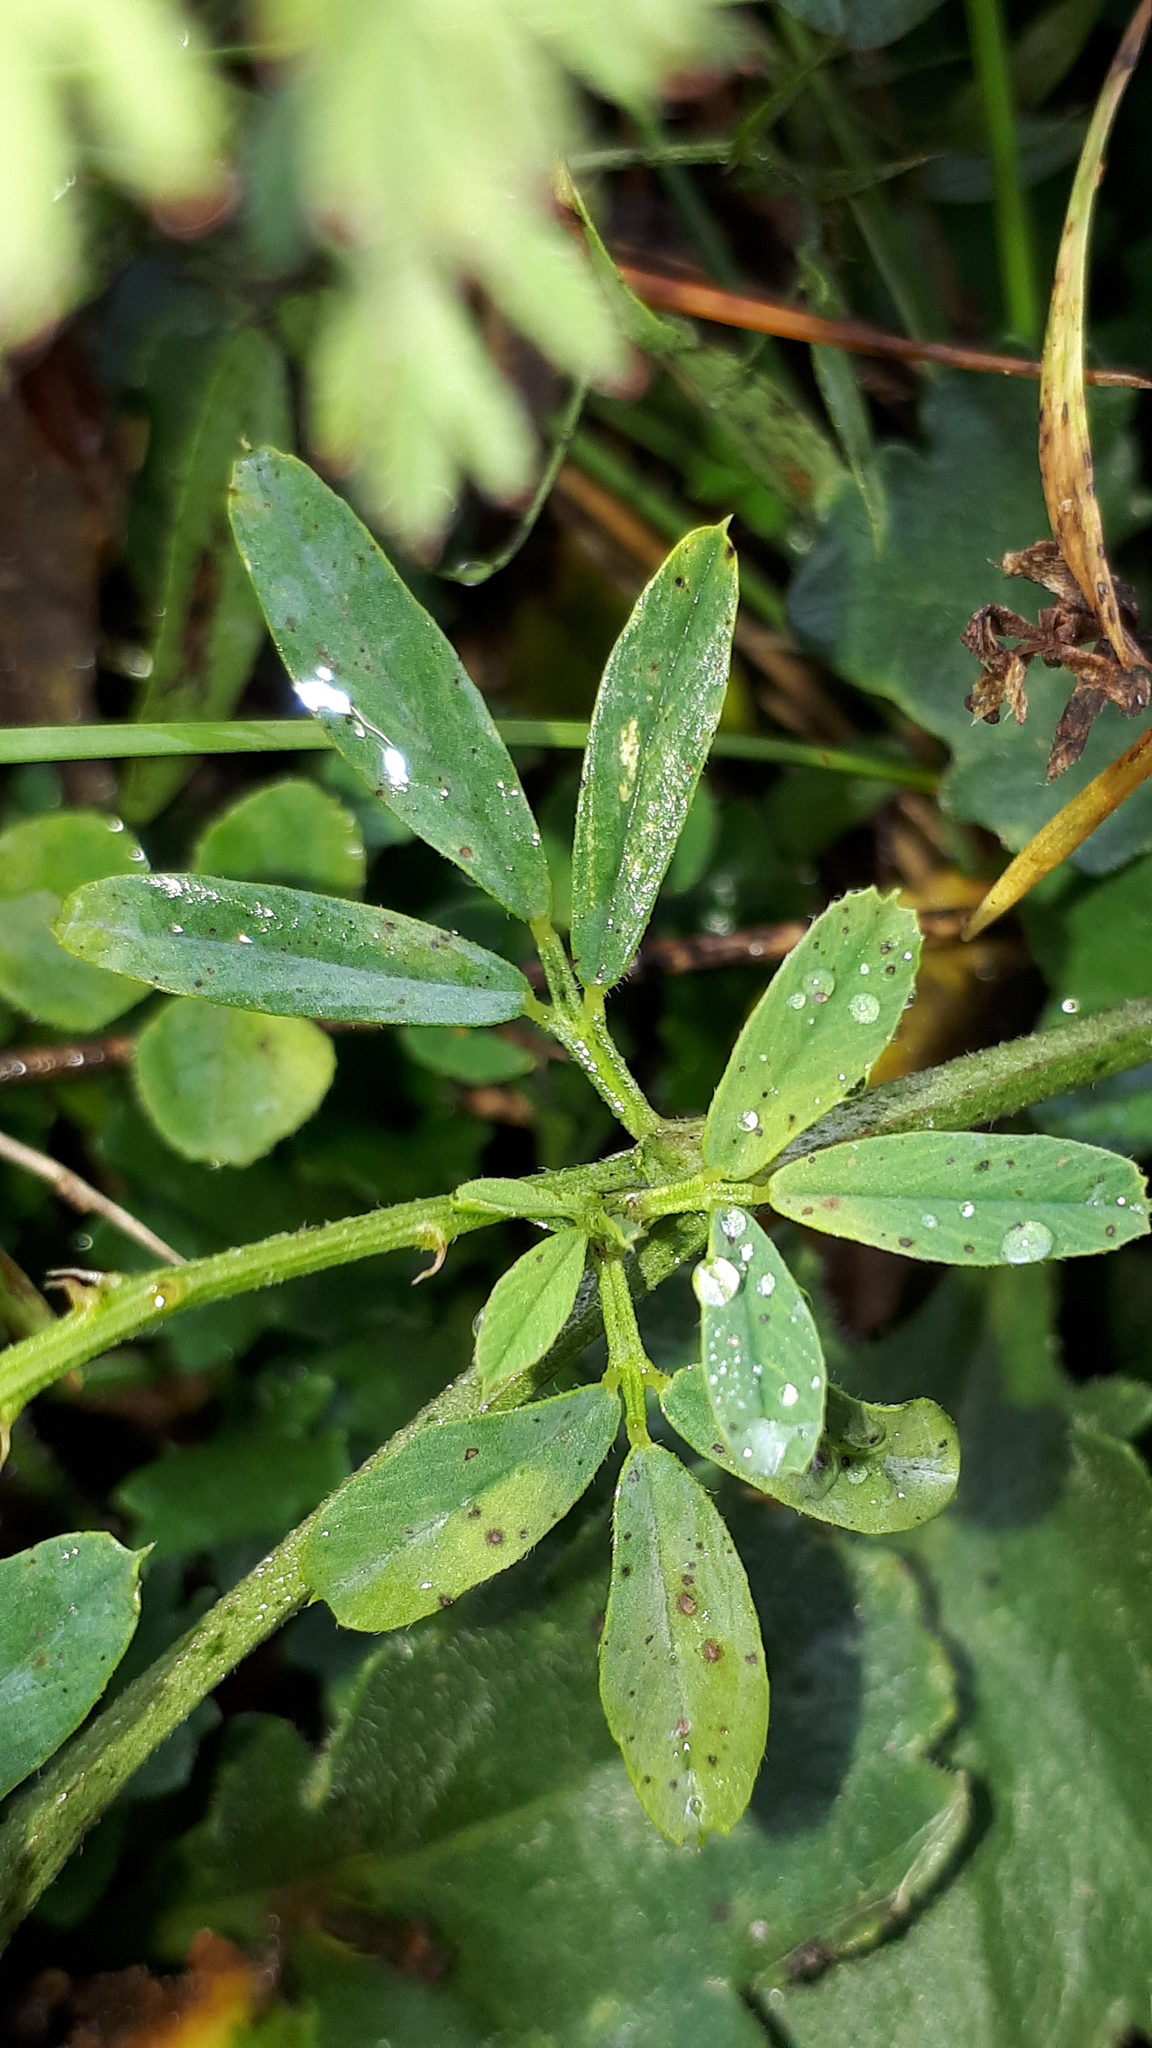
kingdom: Plantae
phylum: Tracheophyta
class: Magnoliopsida
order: Fabales
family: Fabaceae
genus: Medicago
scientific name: Medicago falcata
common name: Sickle medick
